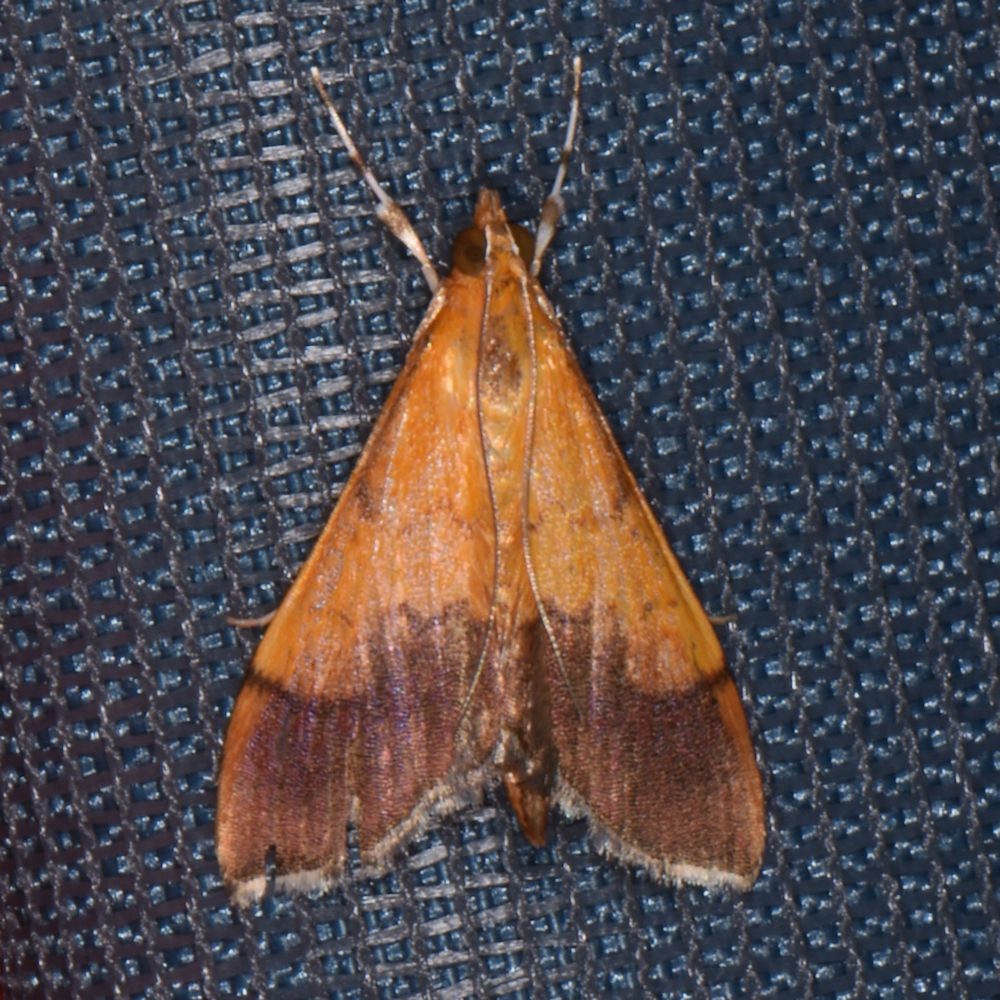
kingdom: Animalia
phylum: Arthropoda
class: Insecta
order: Lepidoptera
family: Crambidae
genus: Pyrausta
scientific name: Pyrausta bicoloralis
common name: Bicolored pyrausta moth
